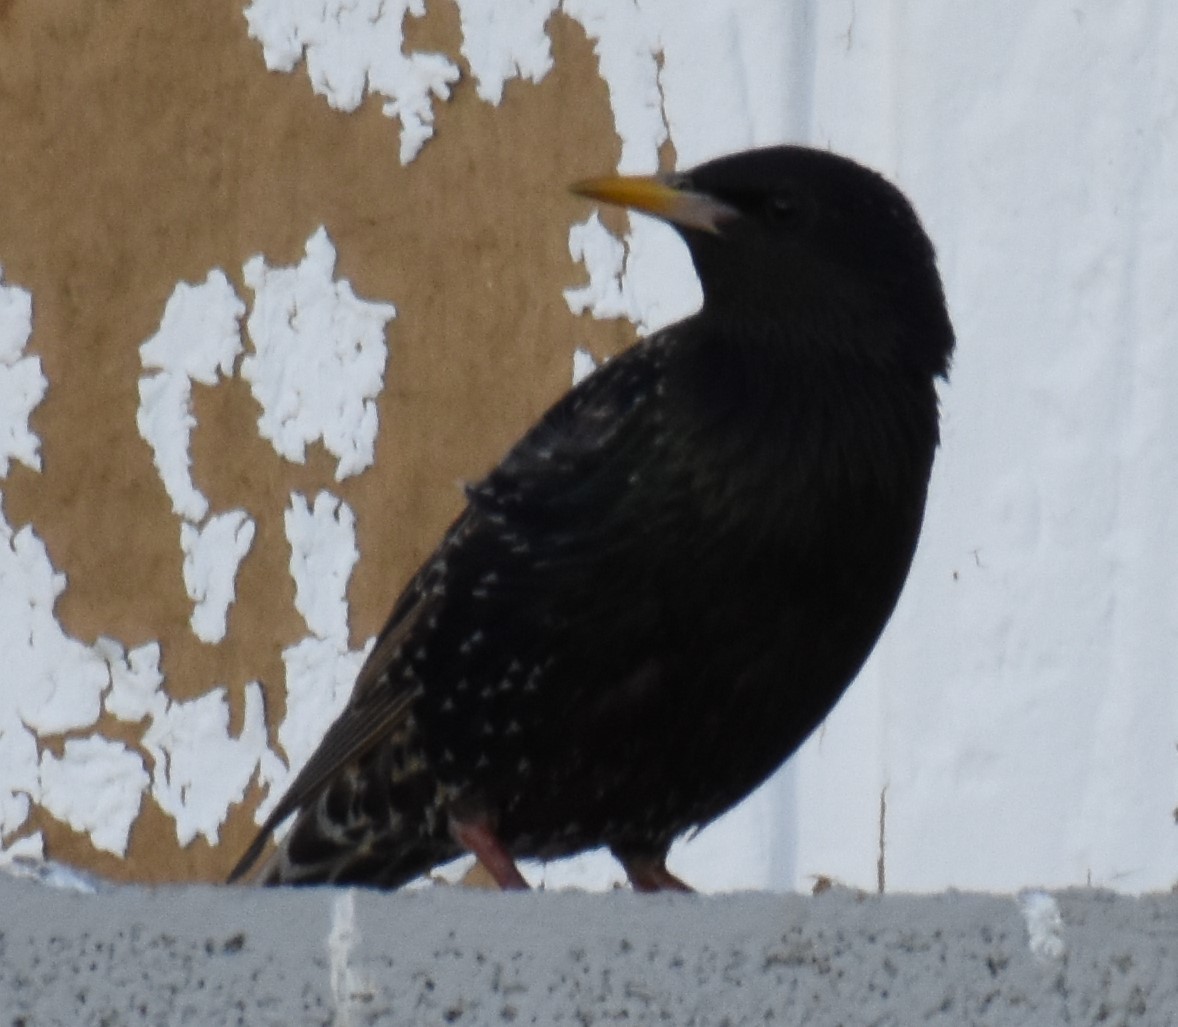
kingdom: Animalia
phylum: Chordata
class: Aves
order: Passeriformes
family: Sturnidae
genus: Sturnus
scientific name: Sturnus vulgaris
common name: Common starling
